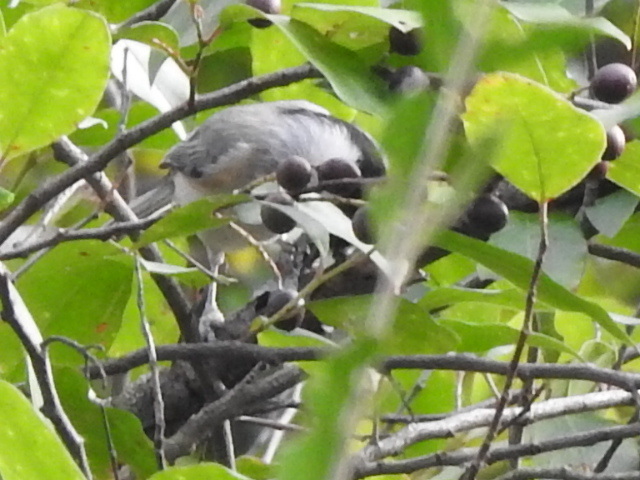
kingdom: Animalia
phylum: Chordata
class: Aves
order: Passeriformes
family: Paridae
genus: Poecile
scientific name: Poecile carolinensis
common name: Carolina chickadee
